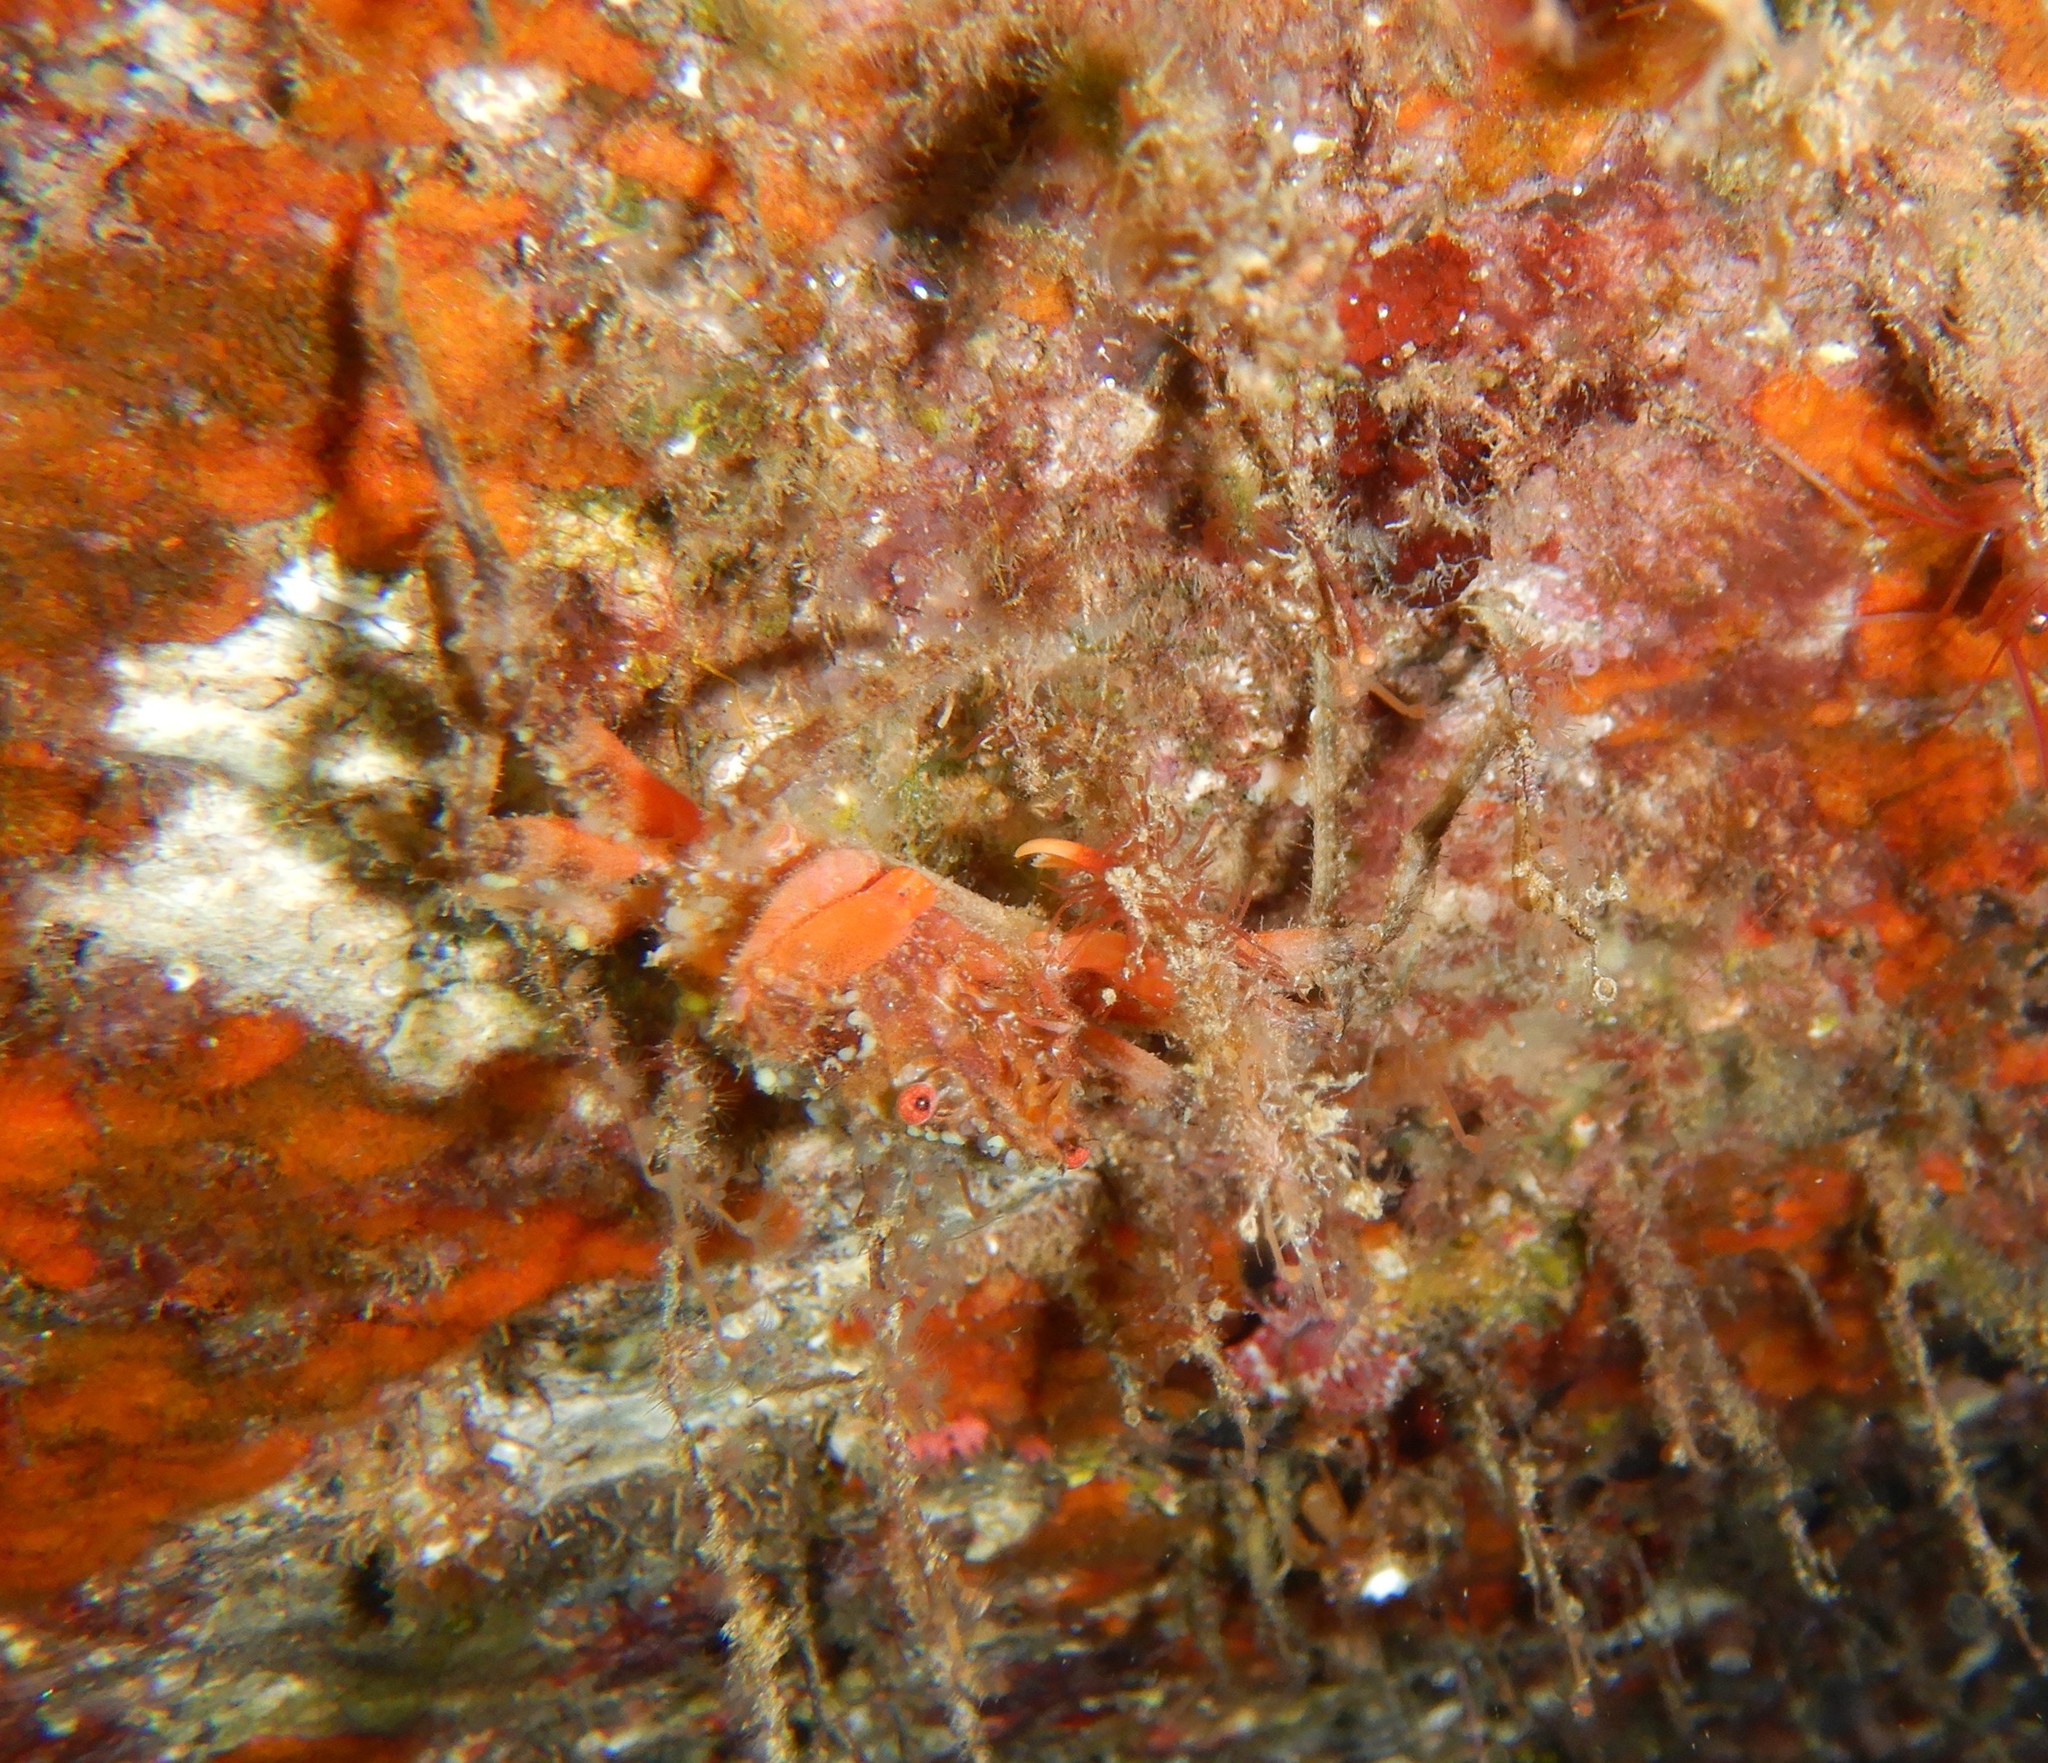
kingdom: Animalia
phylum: Arthropoda
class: Malacostraca
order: Decapoda
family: Epialtidae
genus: Herbstia
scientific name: Herbstia condyliata
